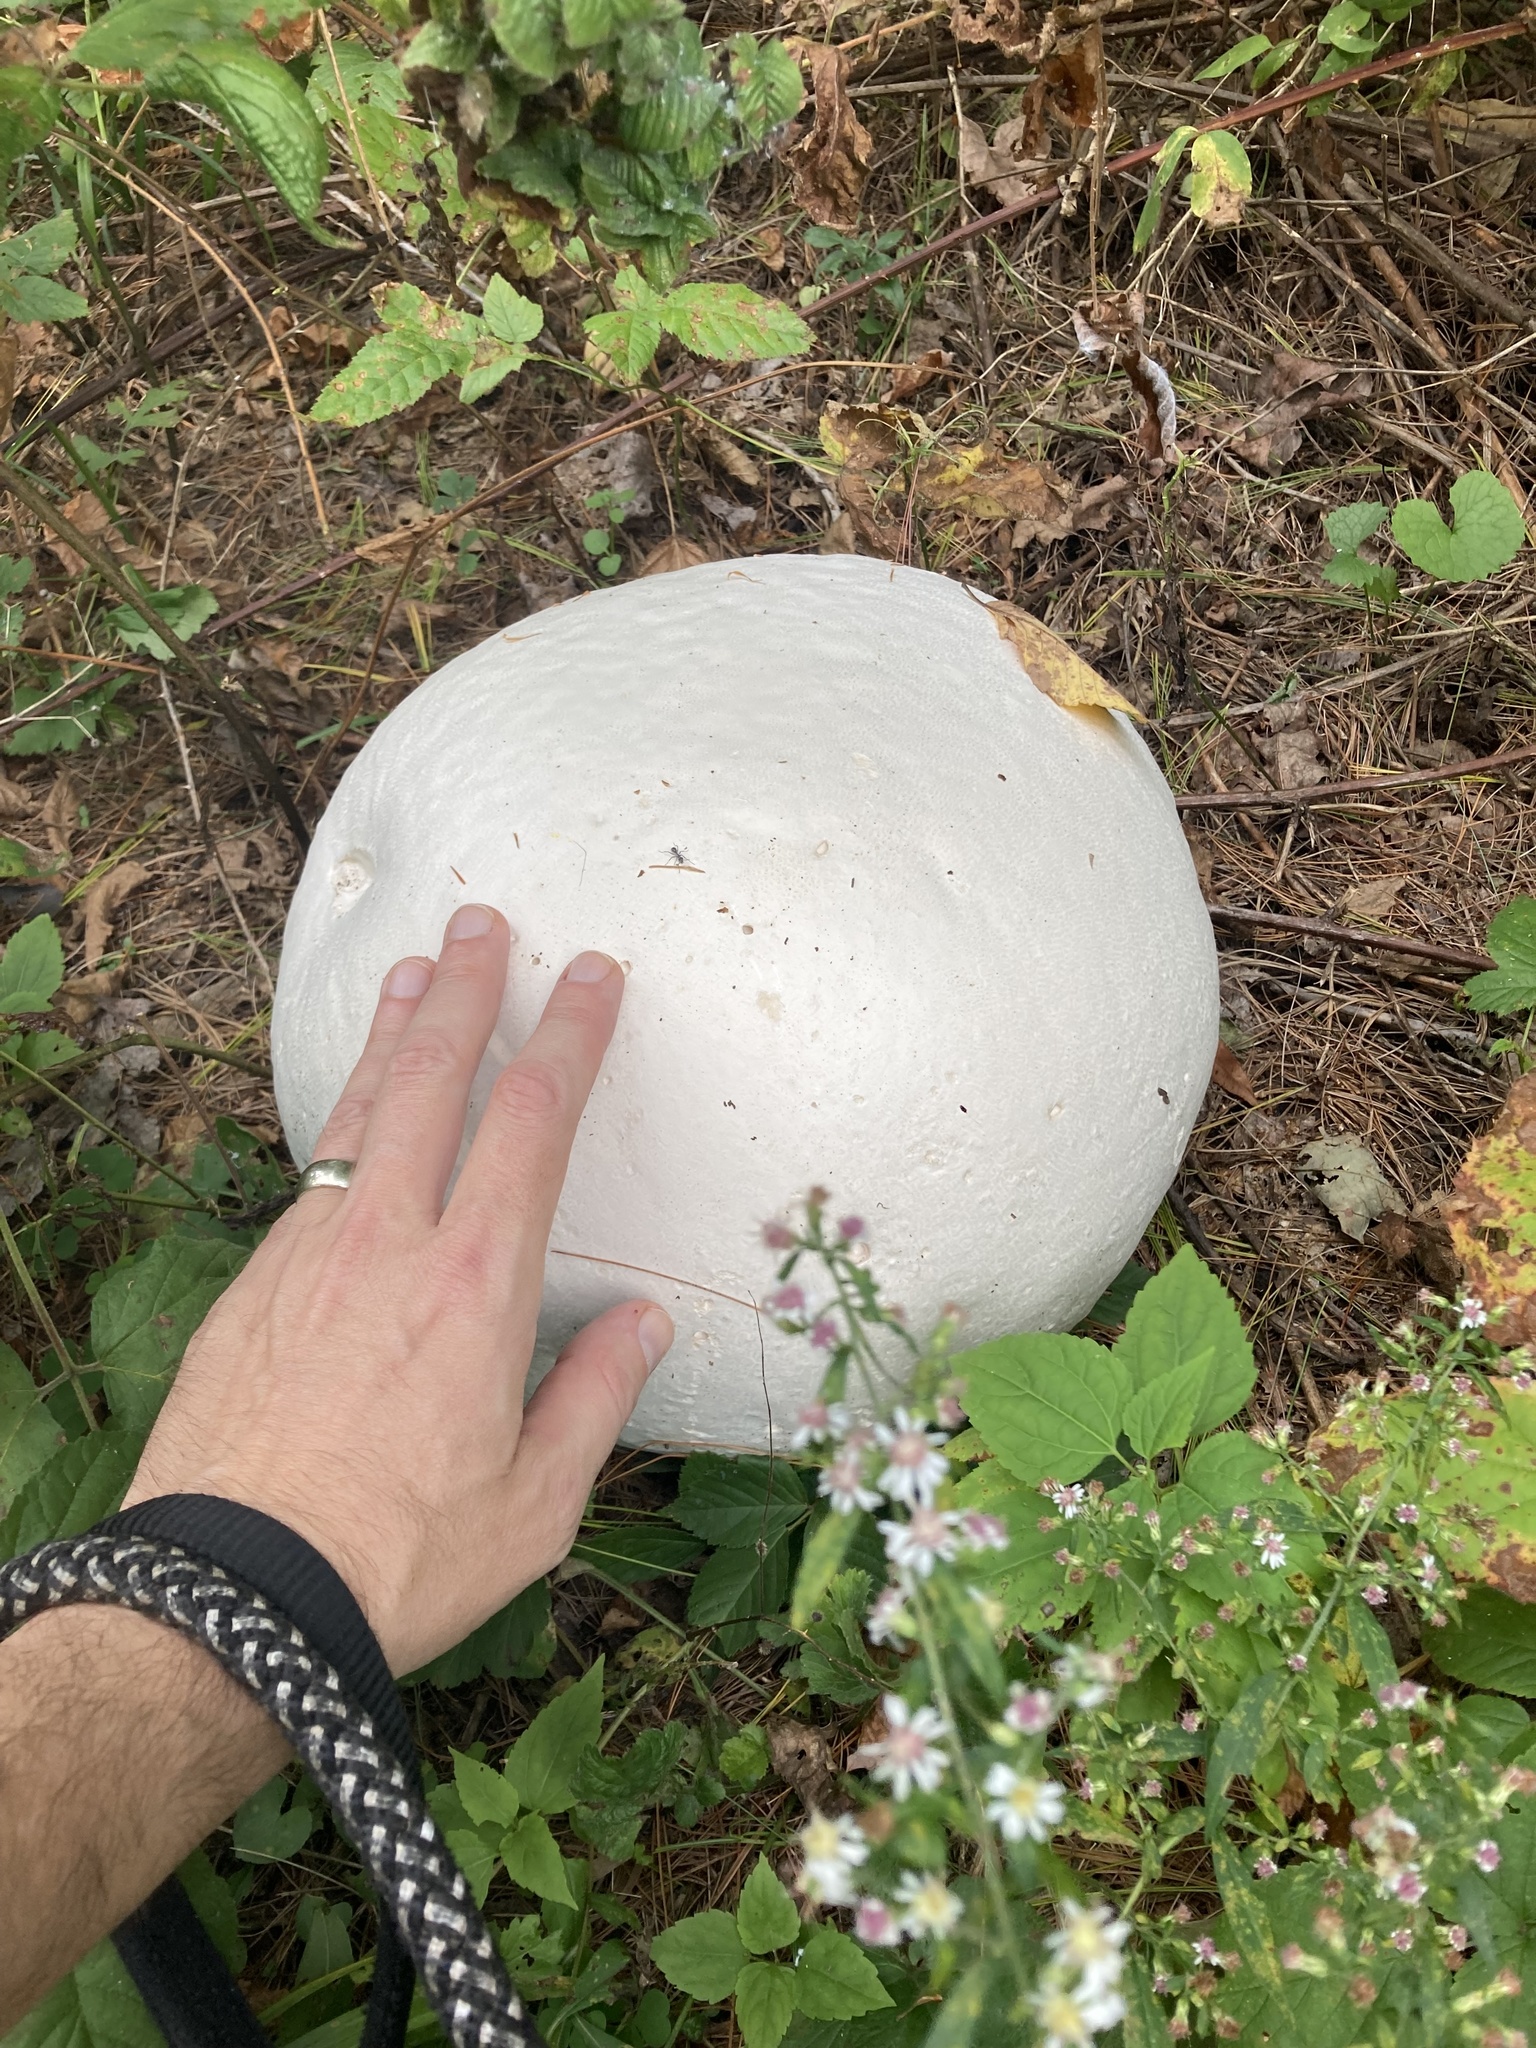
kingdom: Fungi
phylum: Basidiomycota
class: Agaricomycetes
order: Agaricales
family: Lycoperdaceae
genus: Calvatia
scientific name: Calvatia gigantea
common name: Giant puffball
